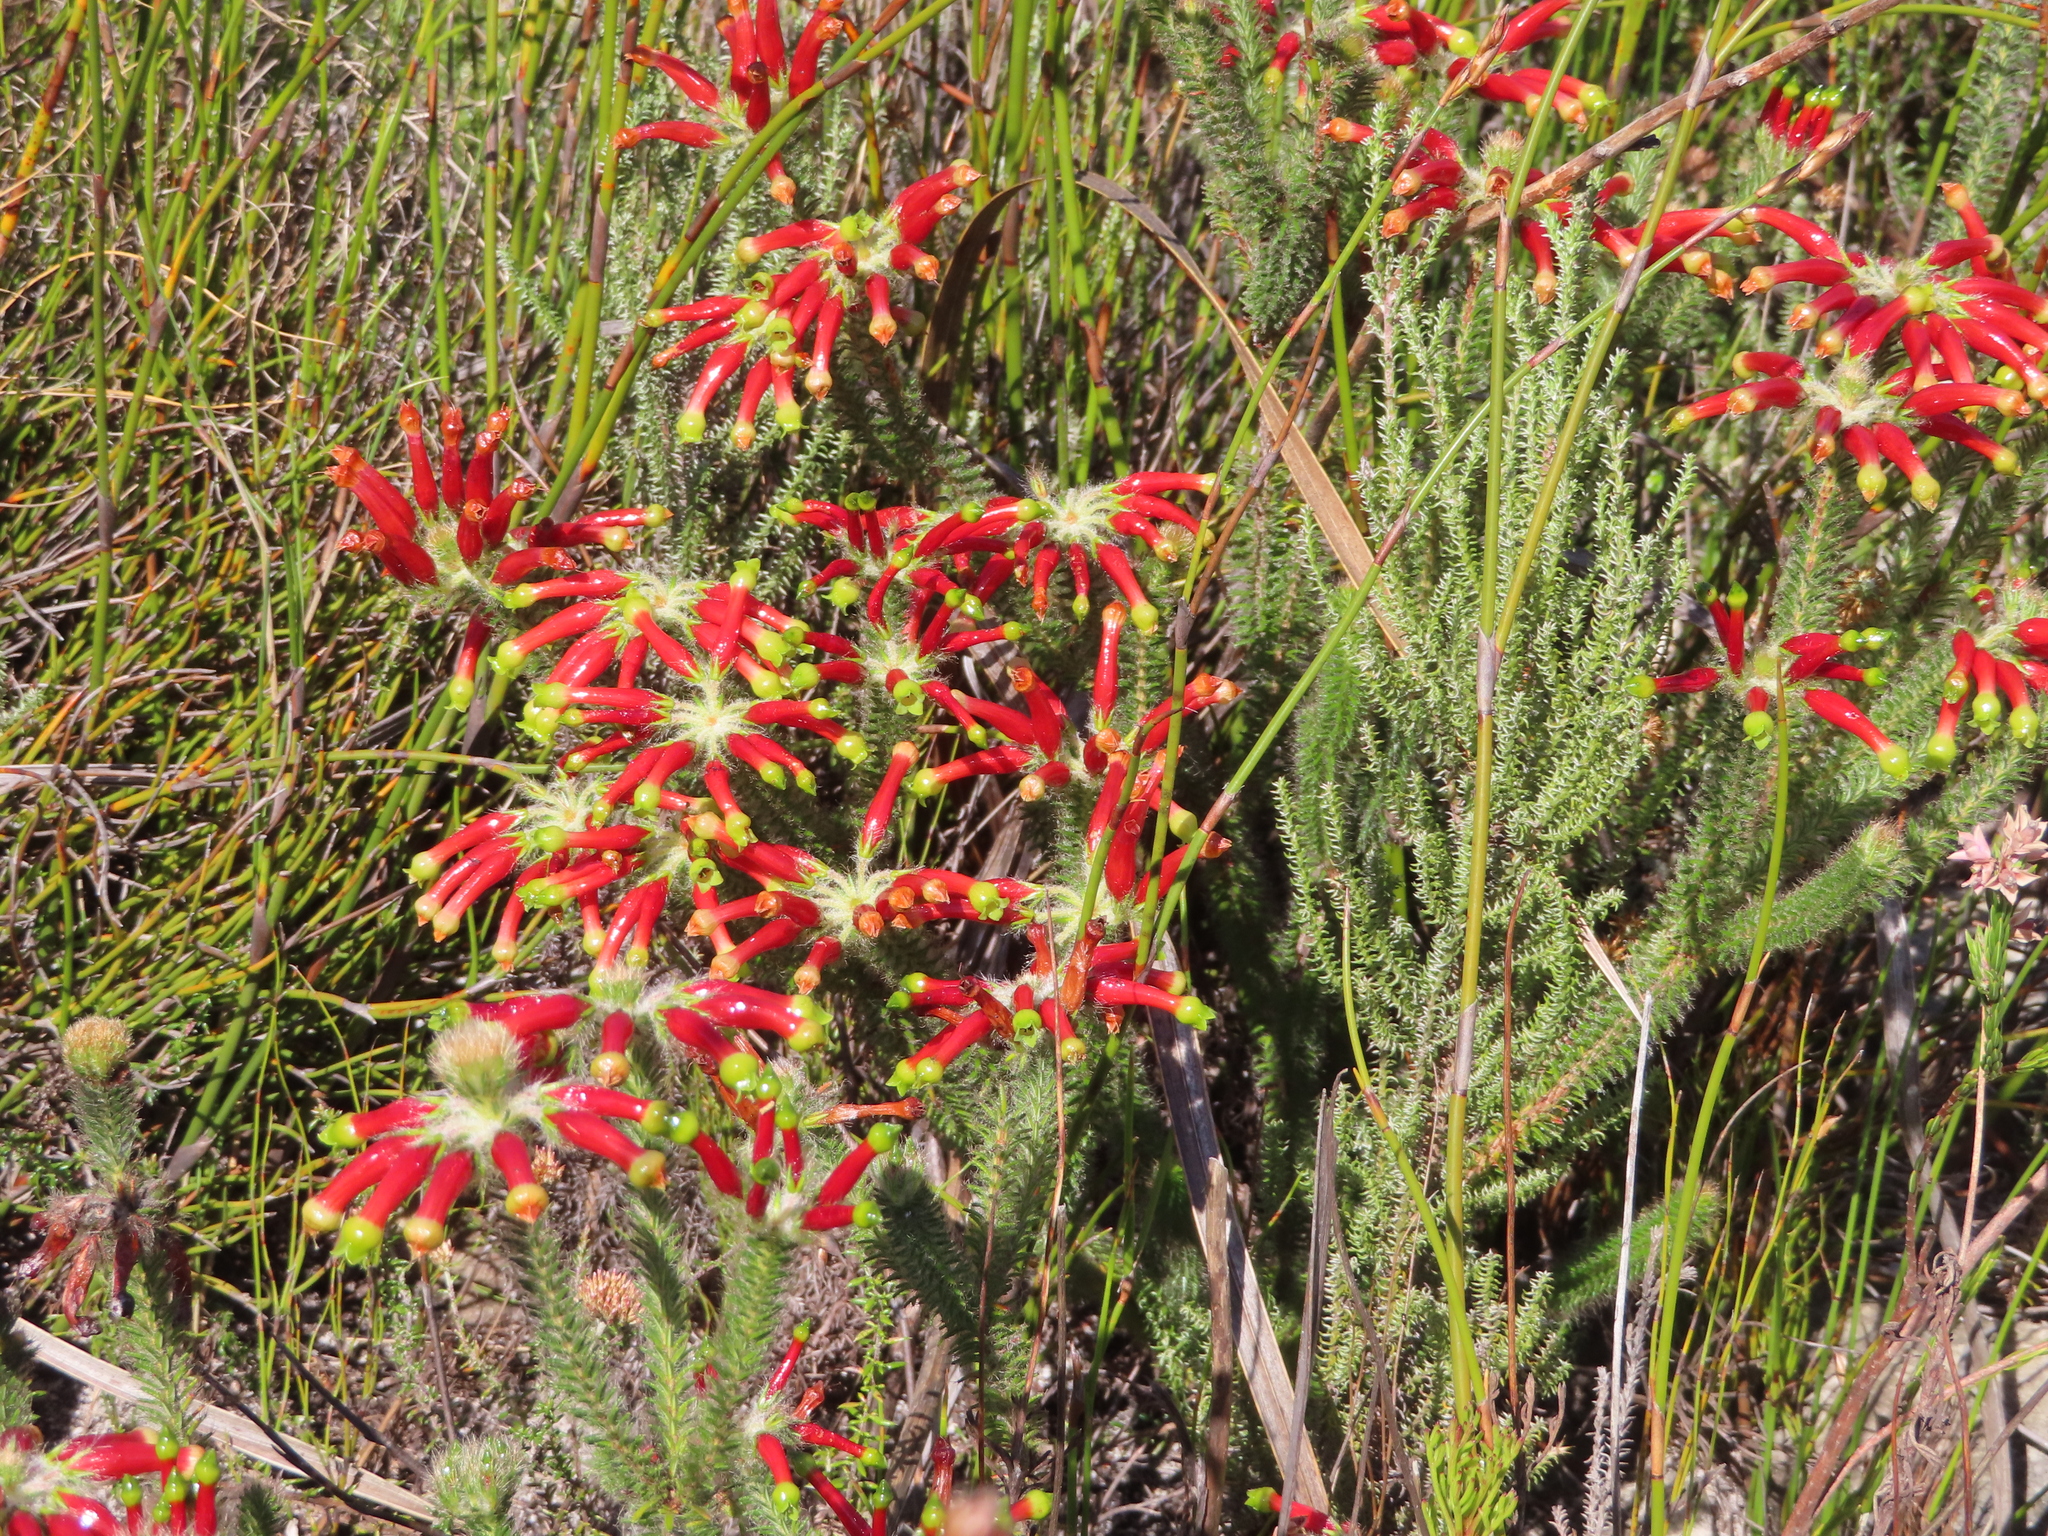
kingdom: Plantae
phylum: Tracheophyta
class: Magnoliopsida
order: Ericales
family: Ericaceae
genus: Erica
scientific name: Erica massonii
